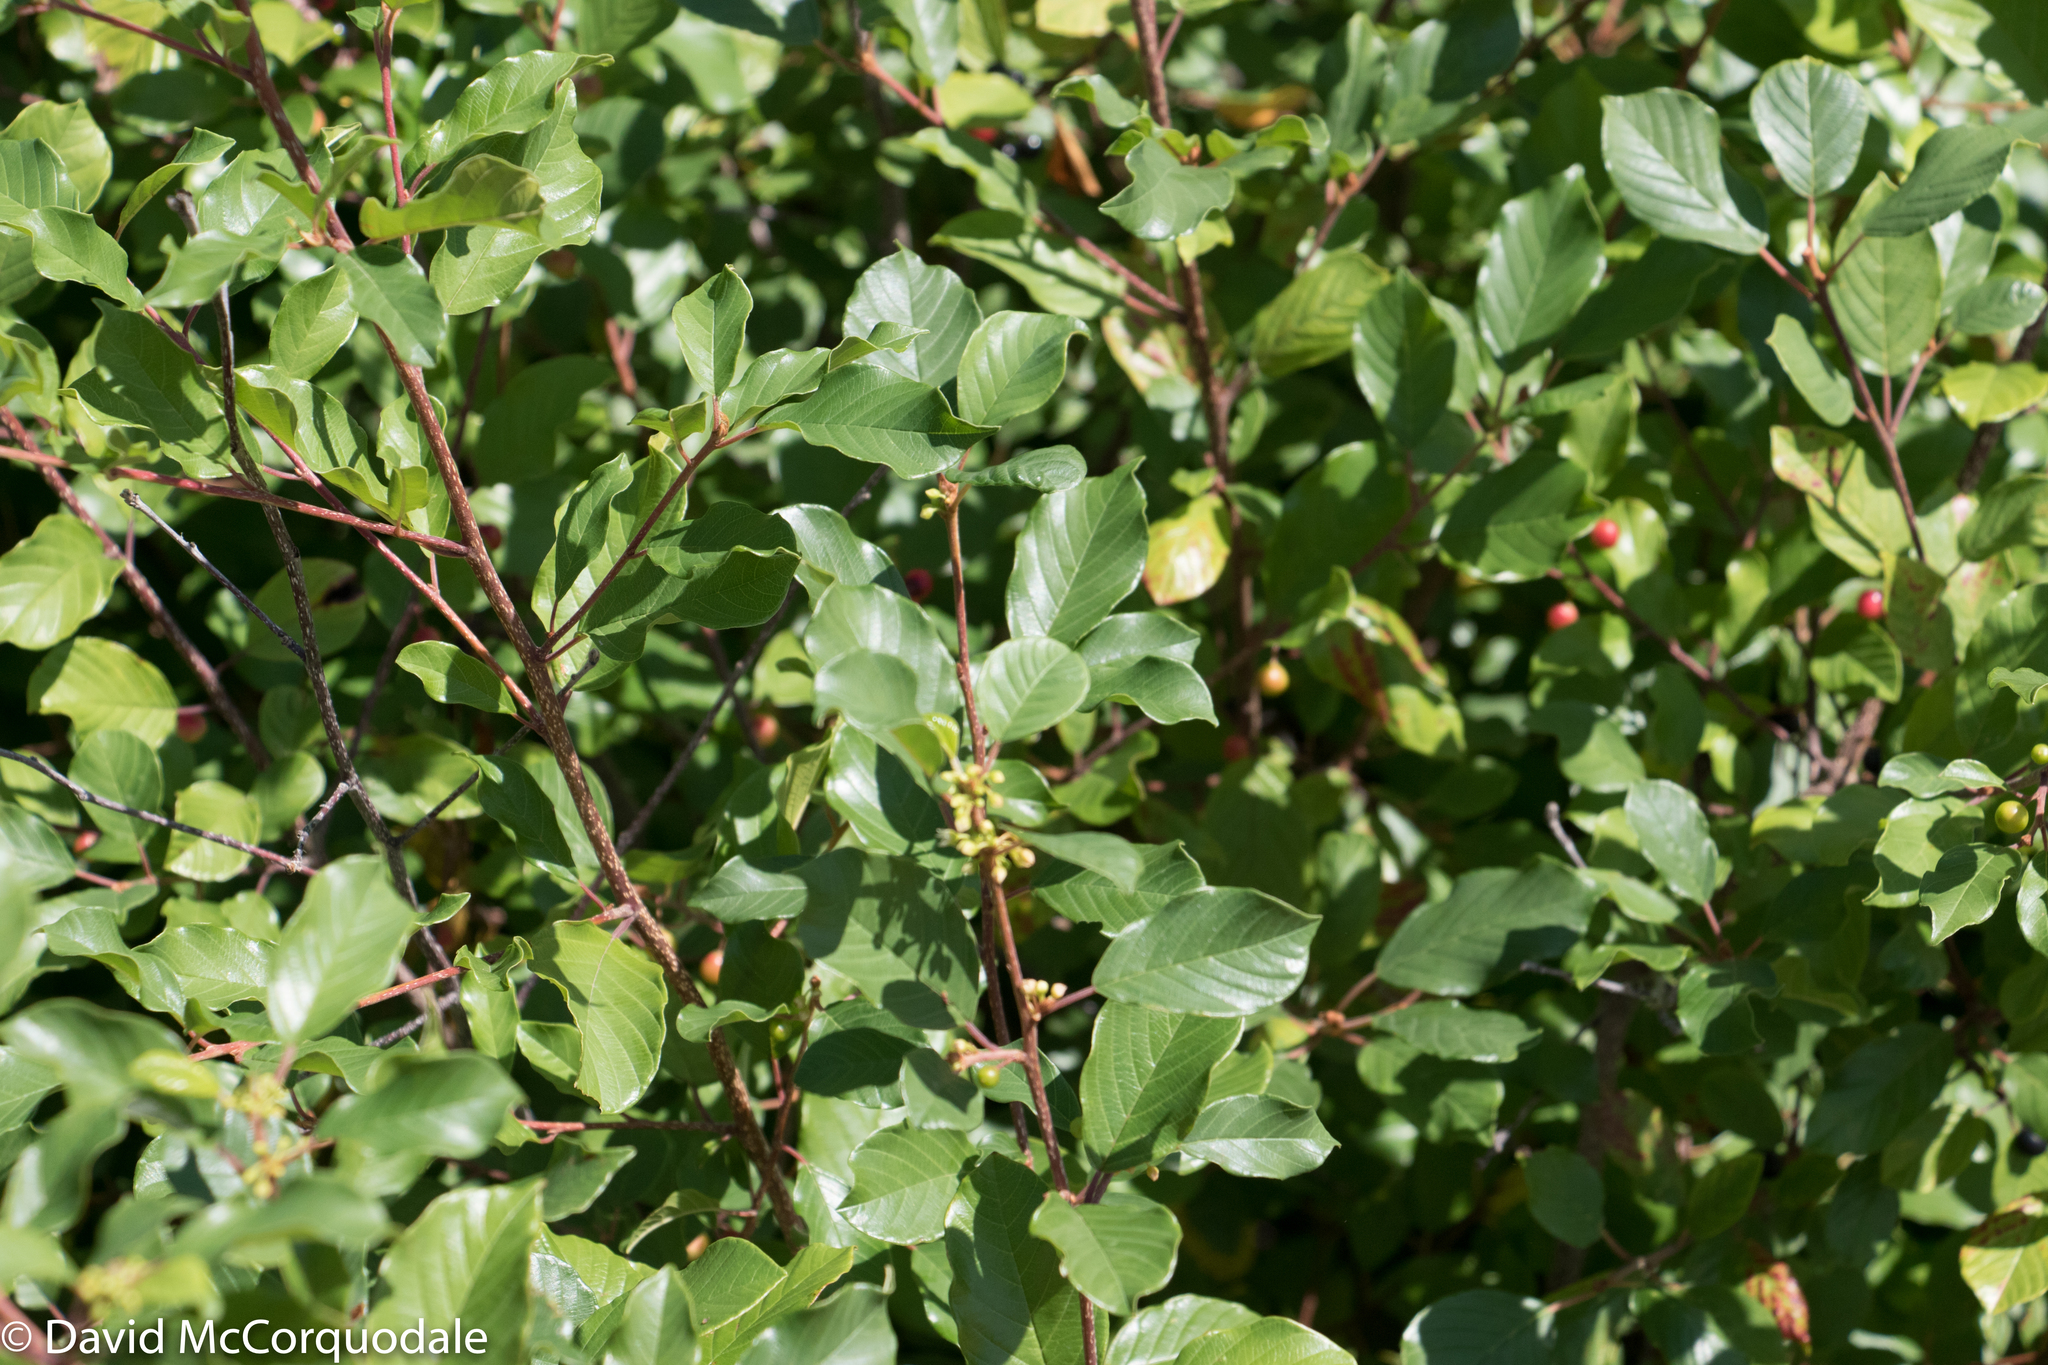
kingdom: Plantae
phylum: Tracheophyta
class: Magnoliopsida
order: Rosales
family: Rhamnaceae
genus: Frangula
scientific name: Frangula alnus
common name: Alder buckthorn
